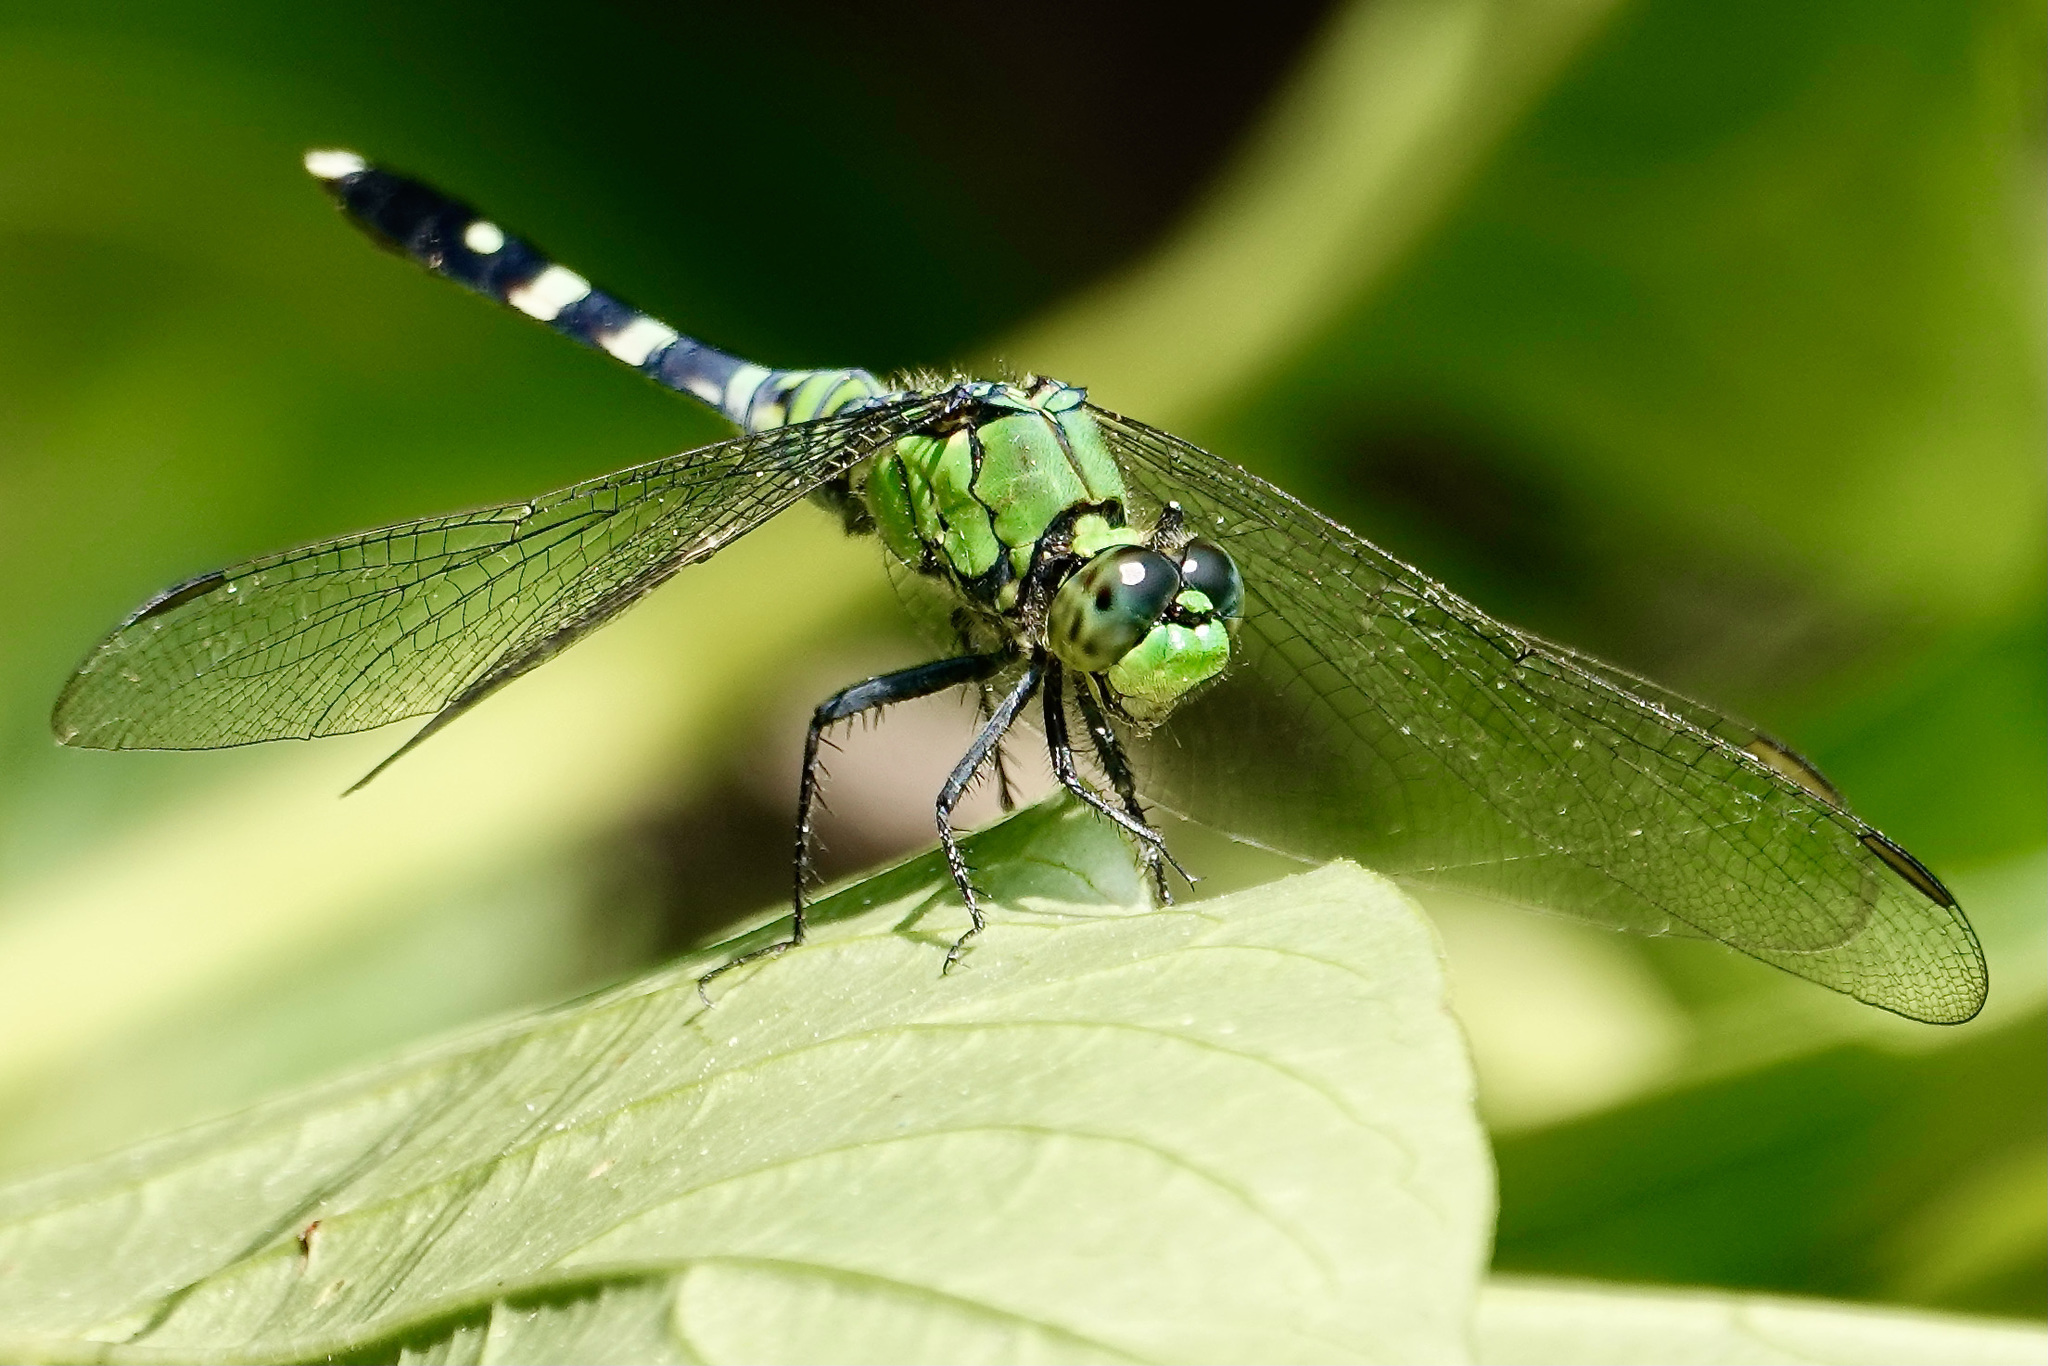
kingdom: Animalia
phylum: Arthropoda
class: Insecta
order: Odonata
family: Libellulidae
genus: Erythemis
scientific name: Erythemis simplicicollis
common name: Eastern pondhawk
